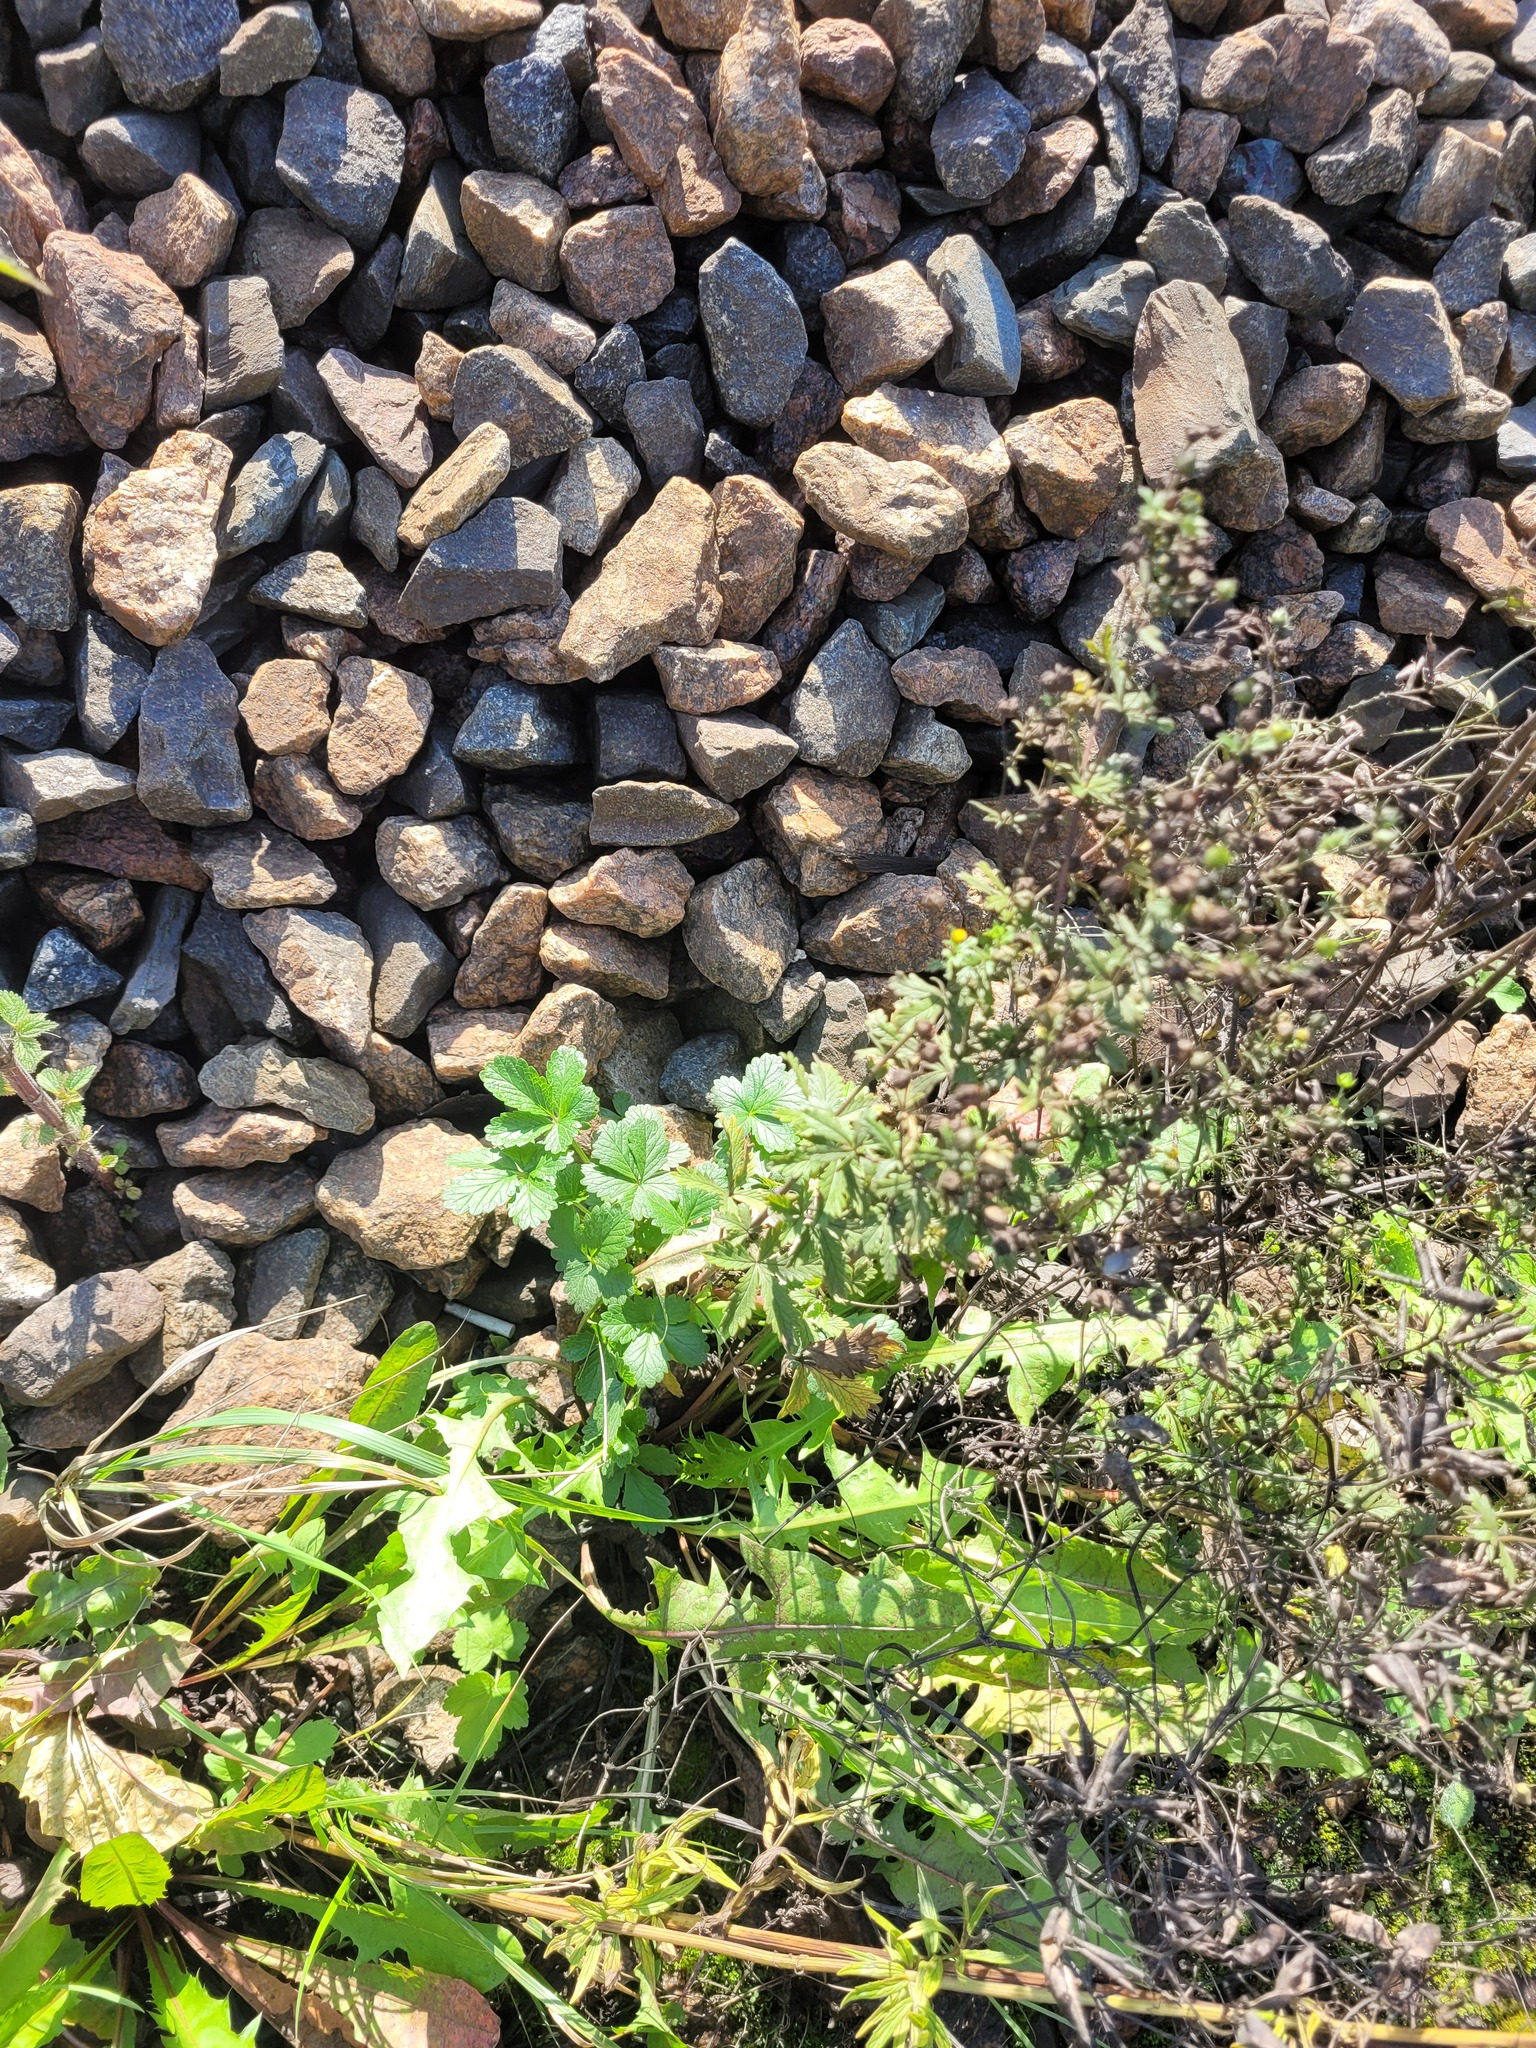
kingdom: Plantae
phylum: Tracheophyta
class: Magnoliopsida
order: Rosales
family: Rosaceae
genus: Potentilla
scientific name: Potentilla intermedia
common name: Downy cinquefoil
